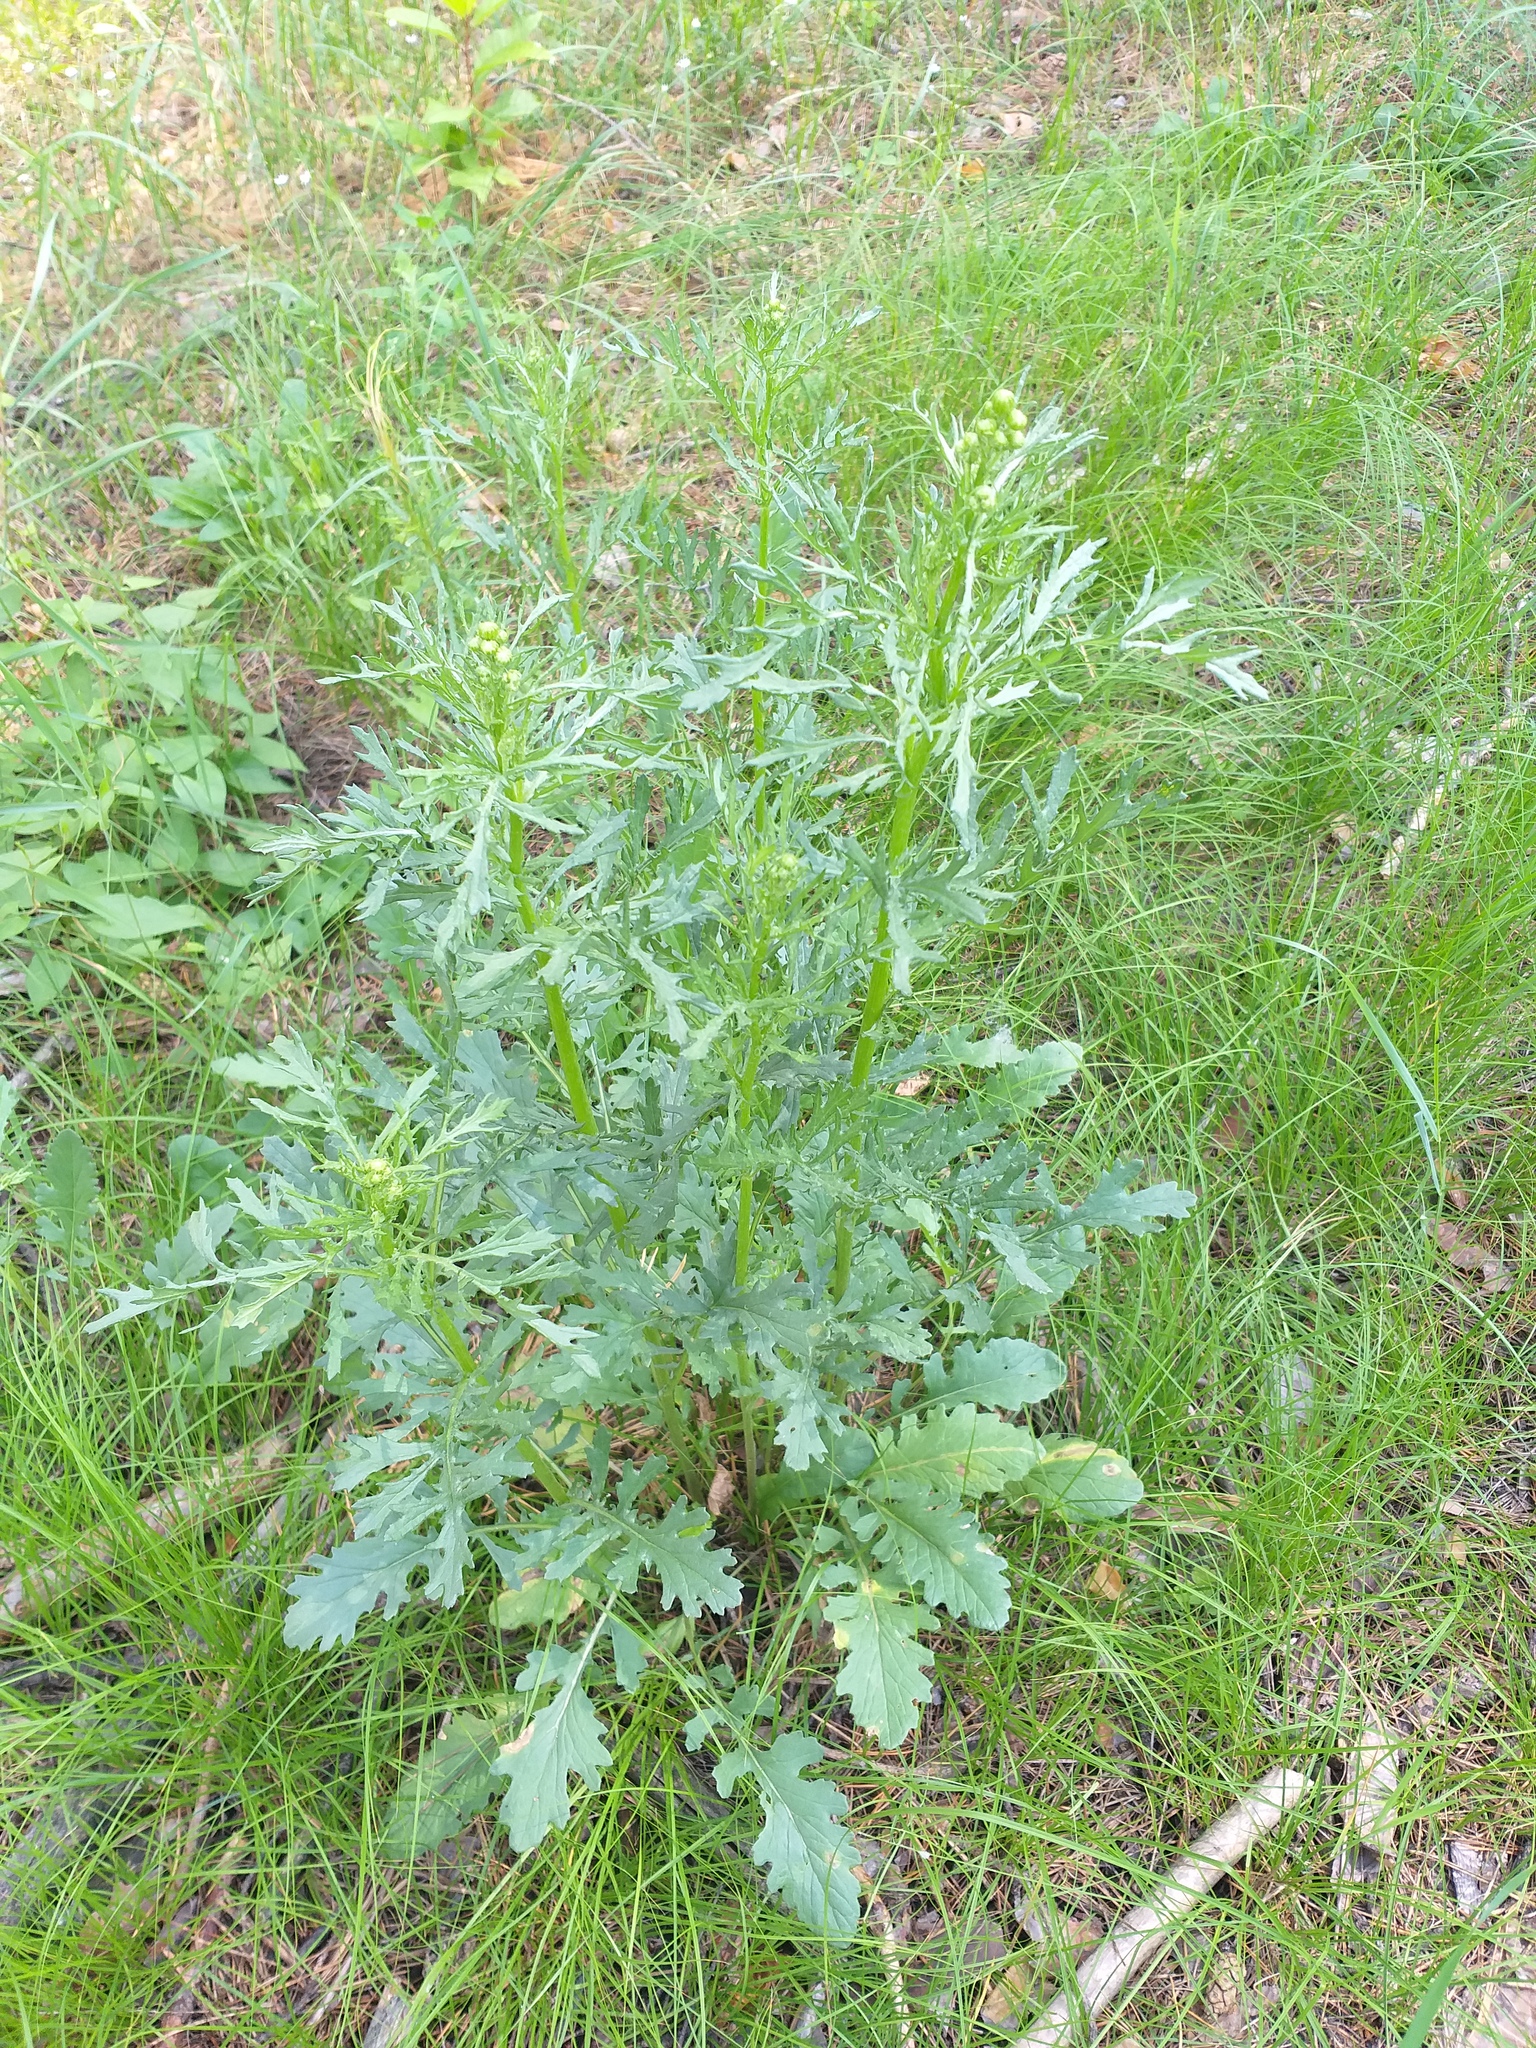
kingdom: Plantae
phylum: Tracheophyta
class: Magnoliopsida
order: Asterales
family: Asteraceae
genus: Jacobaea
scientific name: Jacobaea vulgaris
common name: Stinking willie
